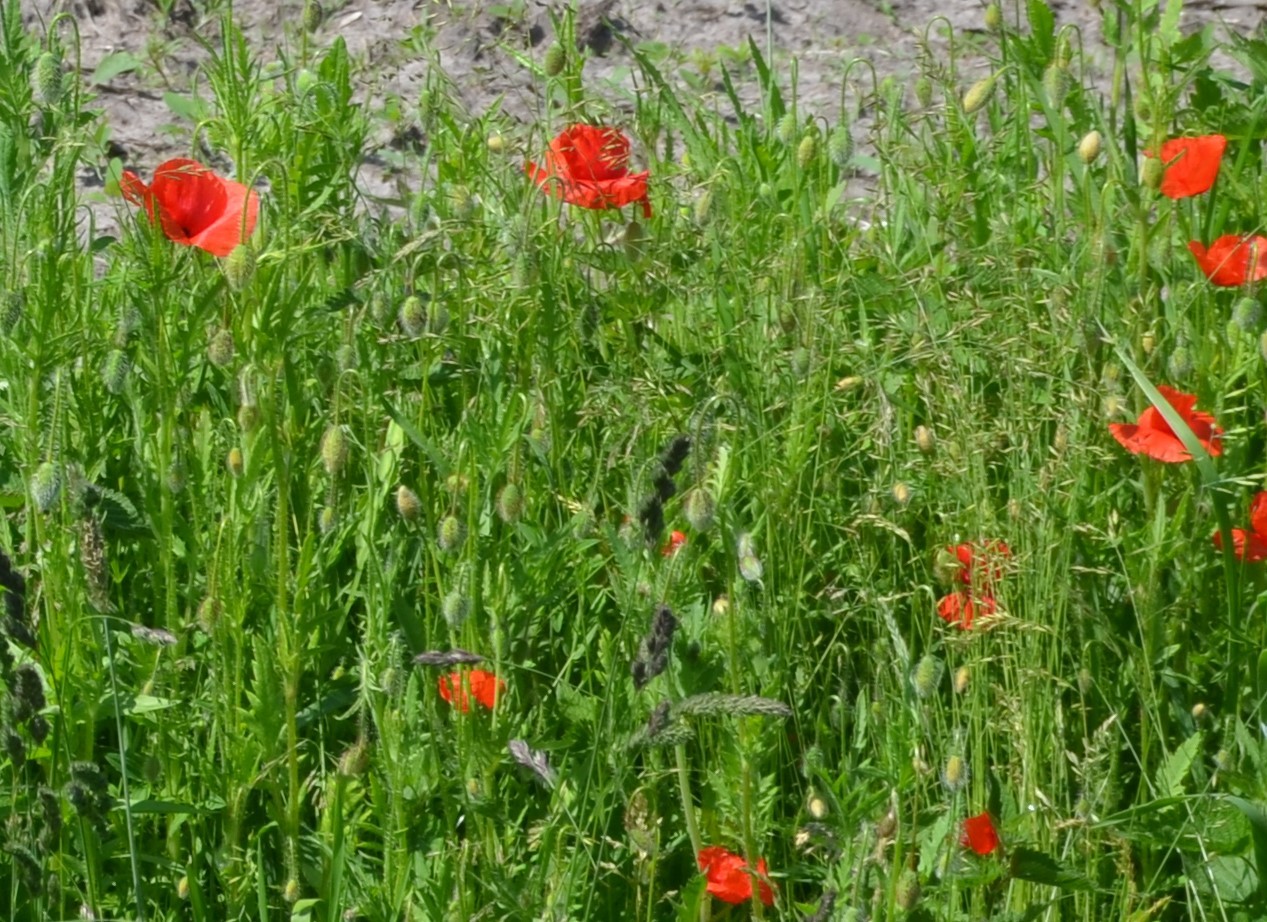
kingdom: Plantae
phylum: Tracheophyta
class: Magnoliopsida
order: Ranunculales
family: Papaveraceae
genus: Papaver
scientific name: Papaver rhoeas
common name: Corn poppy
